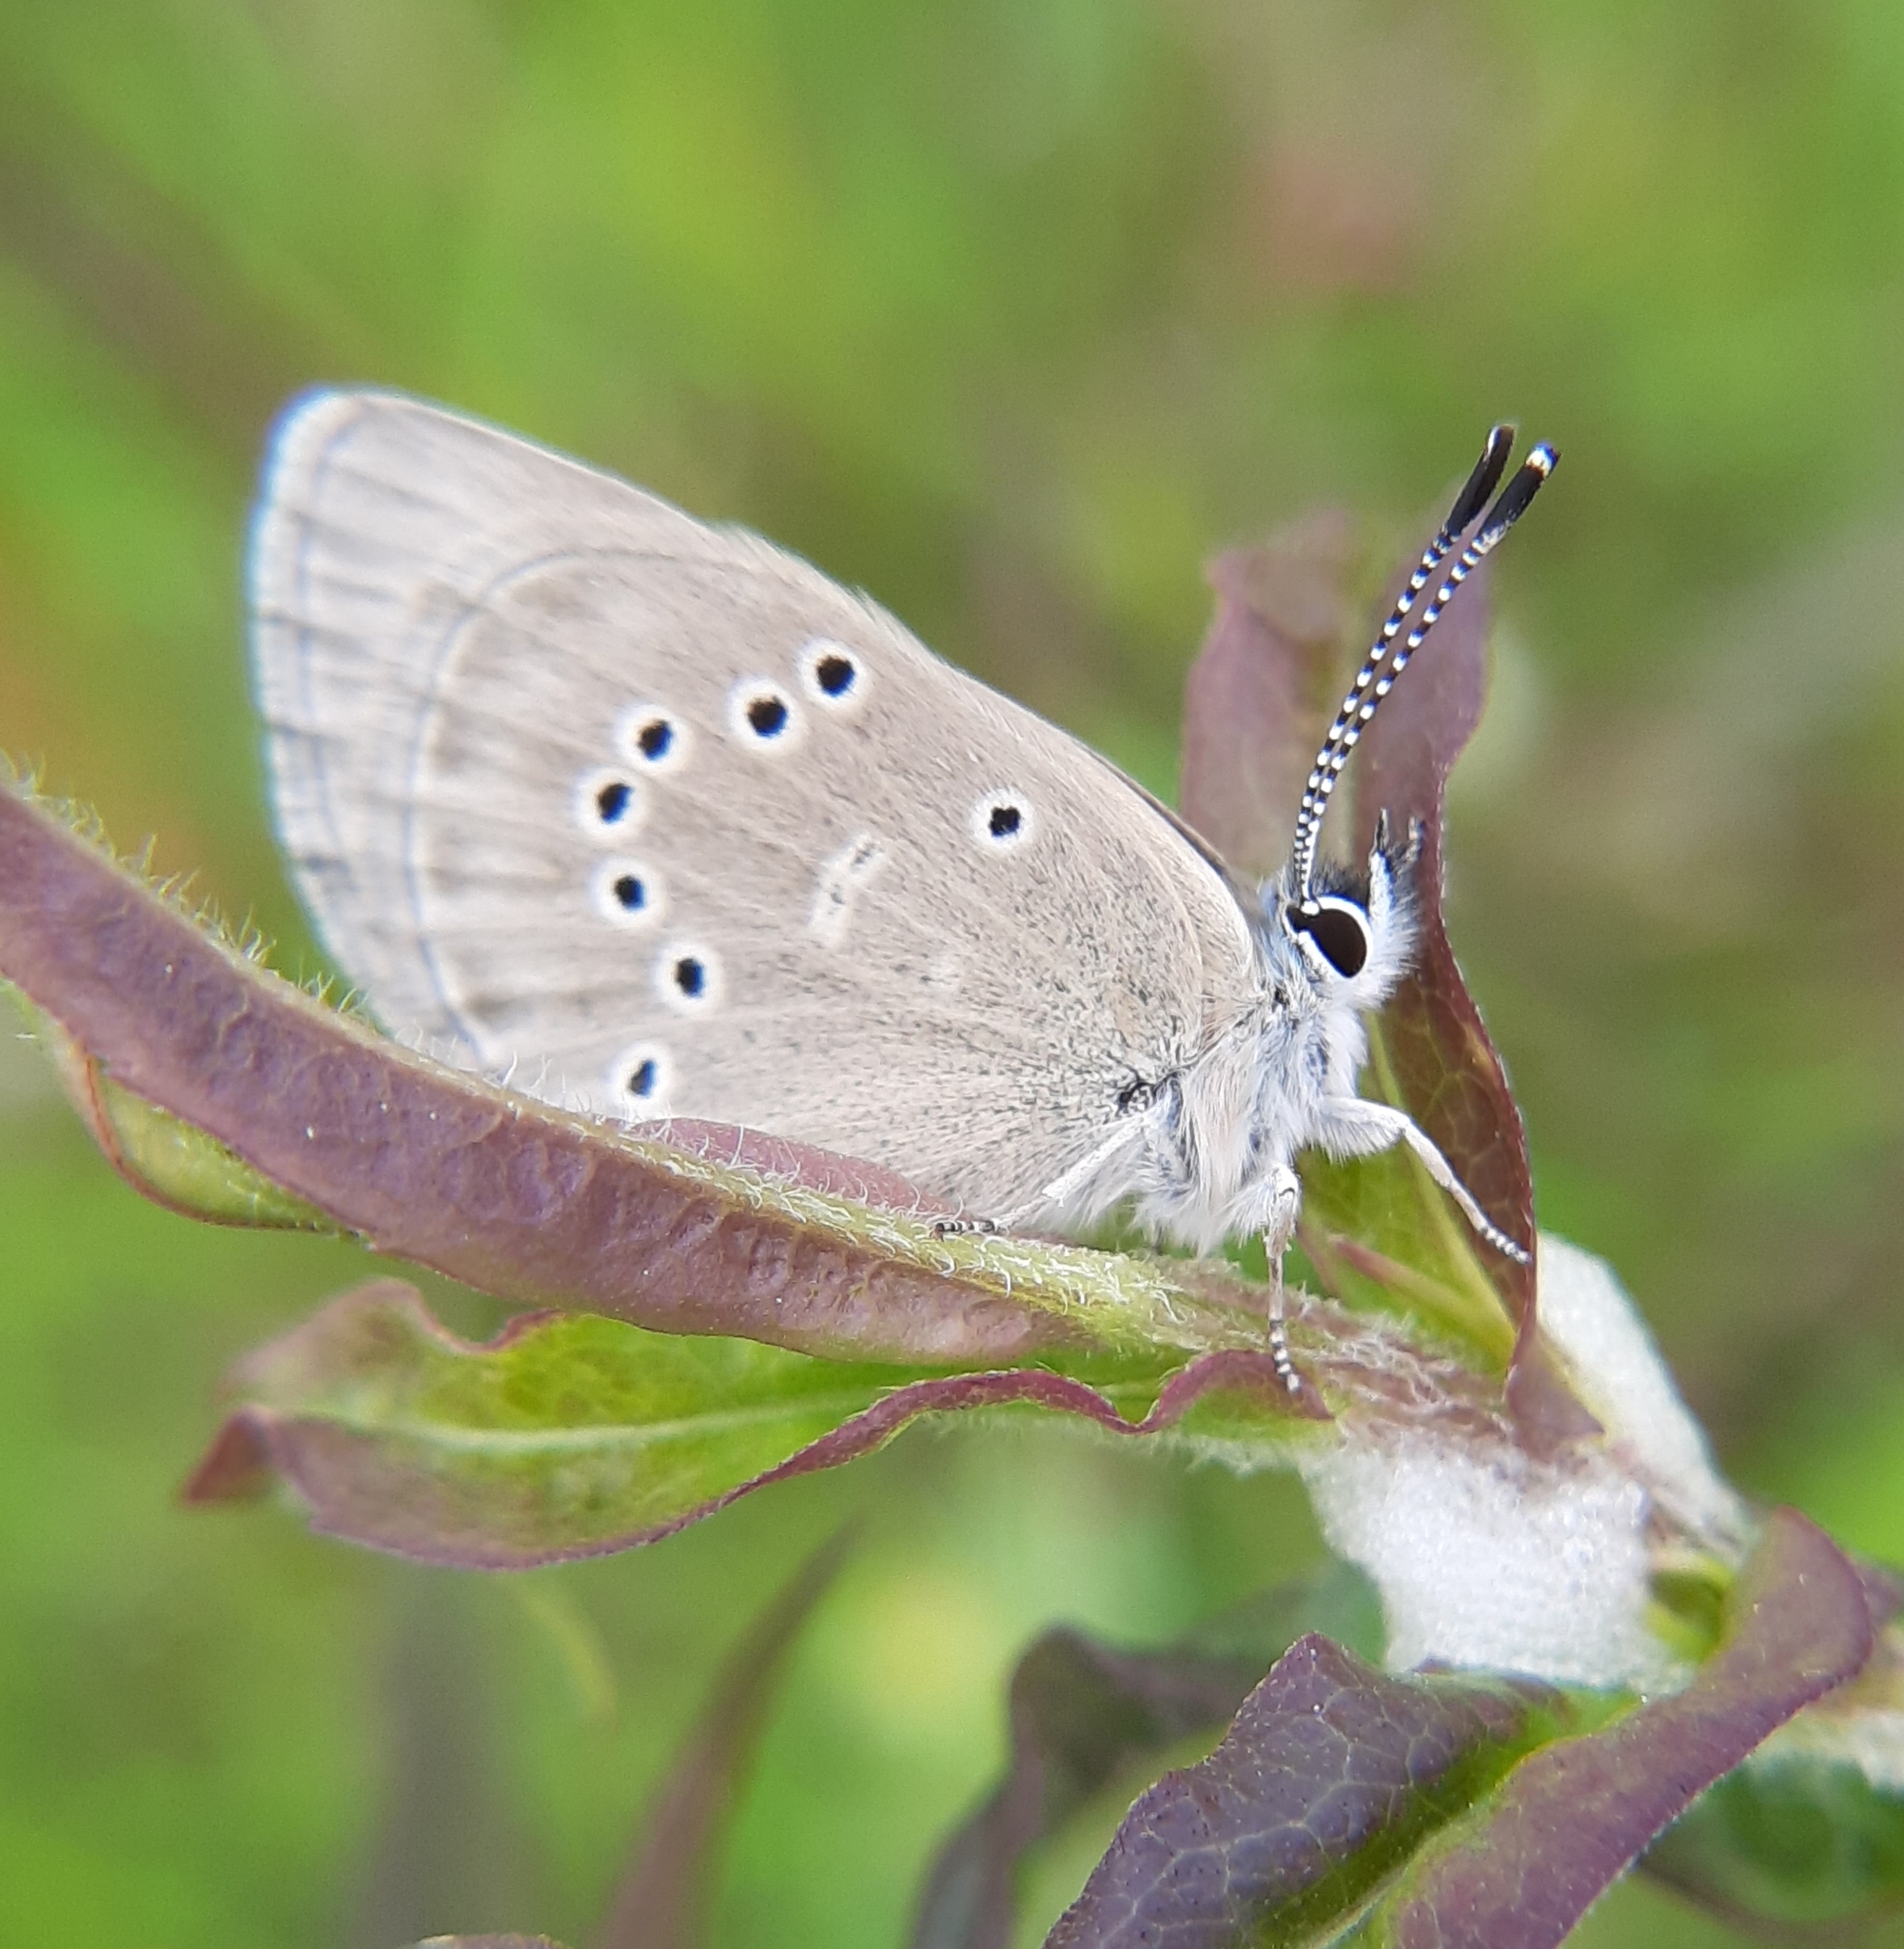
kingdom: Animalia
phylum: Arthropoda
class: Insecta
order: Lepidoptera
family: Lycaenidae
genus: Glaucopsyche
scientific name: Glaucopsyche lygdamus
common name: Silvery blue
